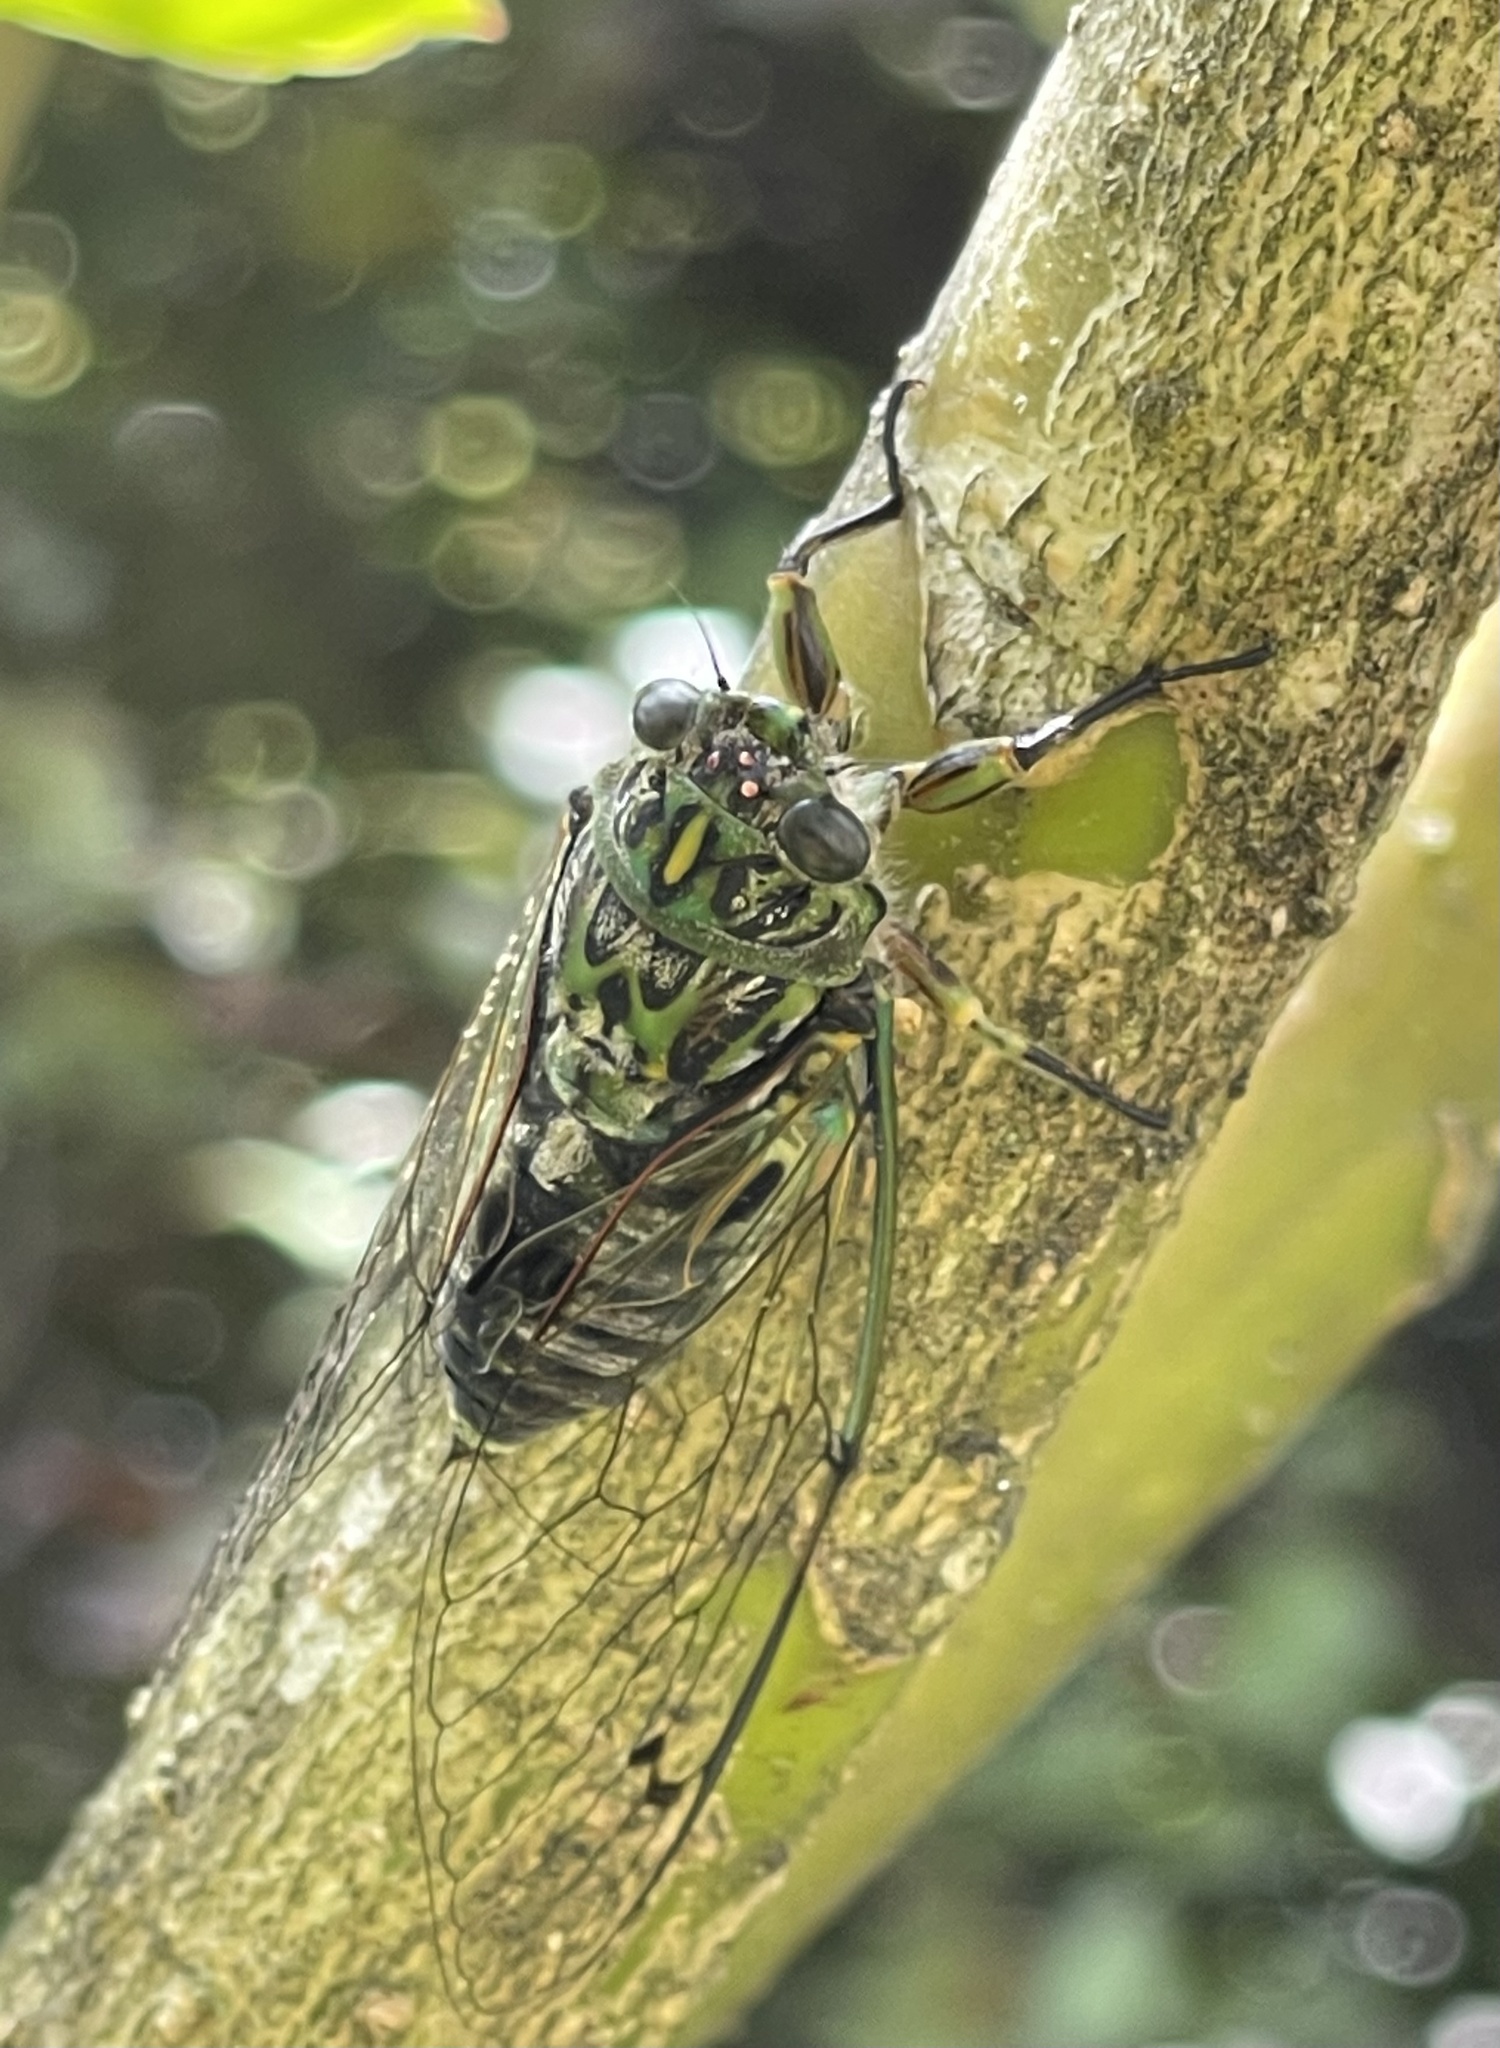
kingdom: Animalia
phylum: Arthropoda
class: Insecta
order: Hemiptera
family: Cicadidae
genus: Amphipsalta
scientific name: Amphipsalta zelandica
